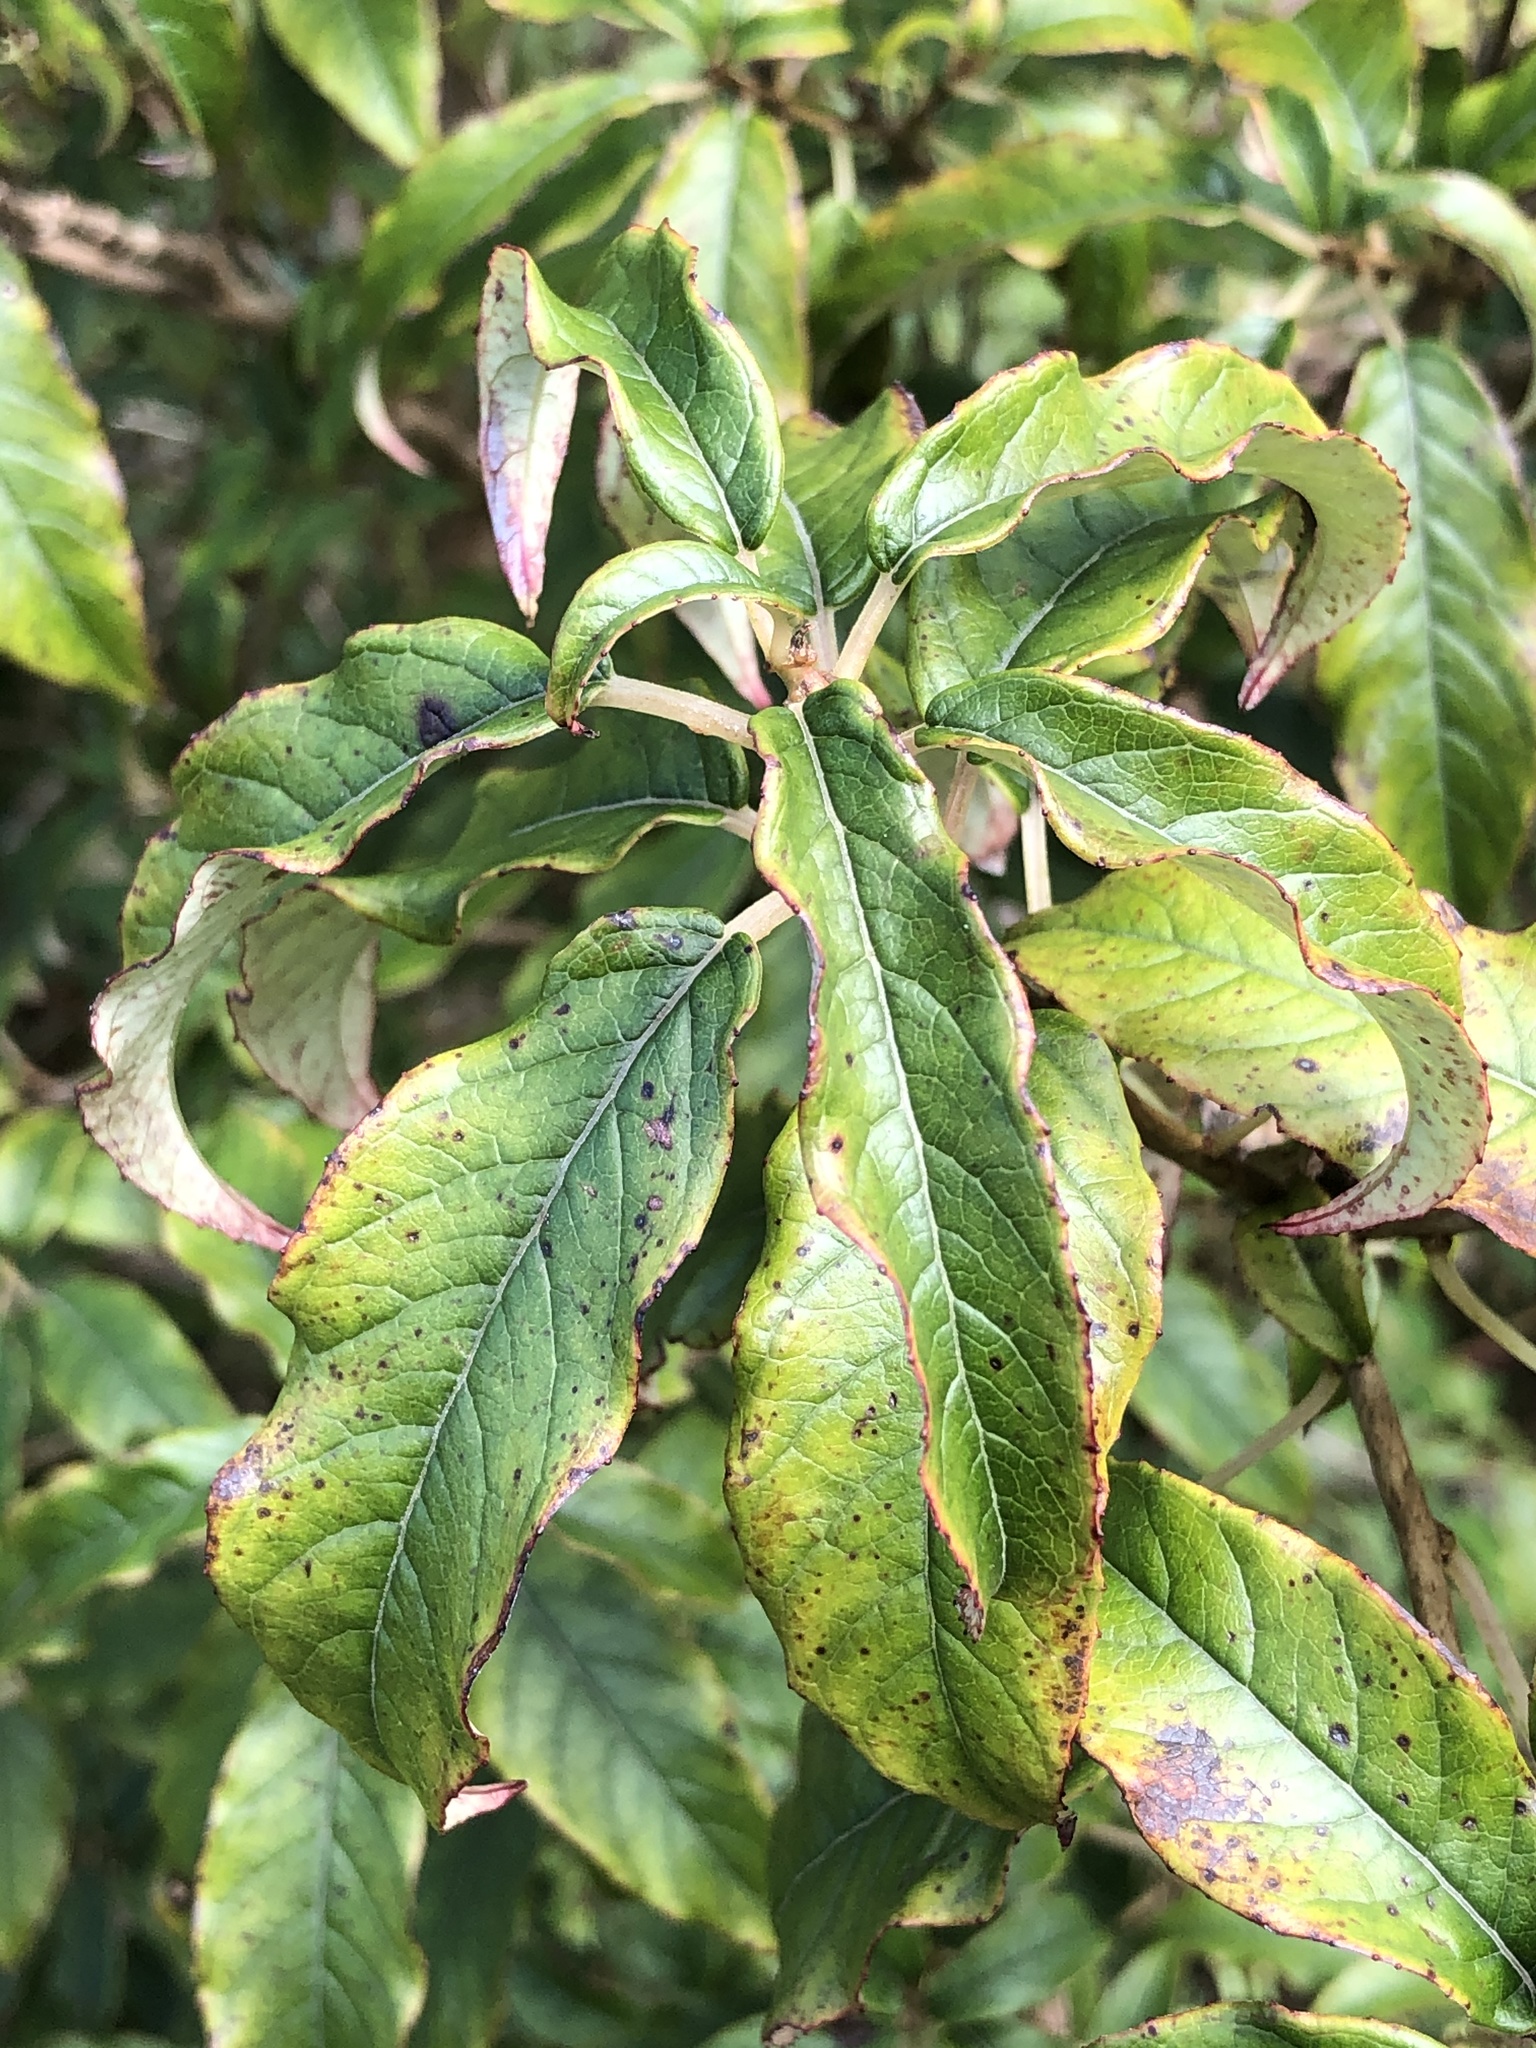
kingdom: Plantae
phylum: Tracheophyta
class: Magnoliopsida
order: Myrtales
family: Onagraceae
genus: Fuchsia
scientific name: Fuchsia excorticata
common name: Tree fuchsia
